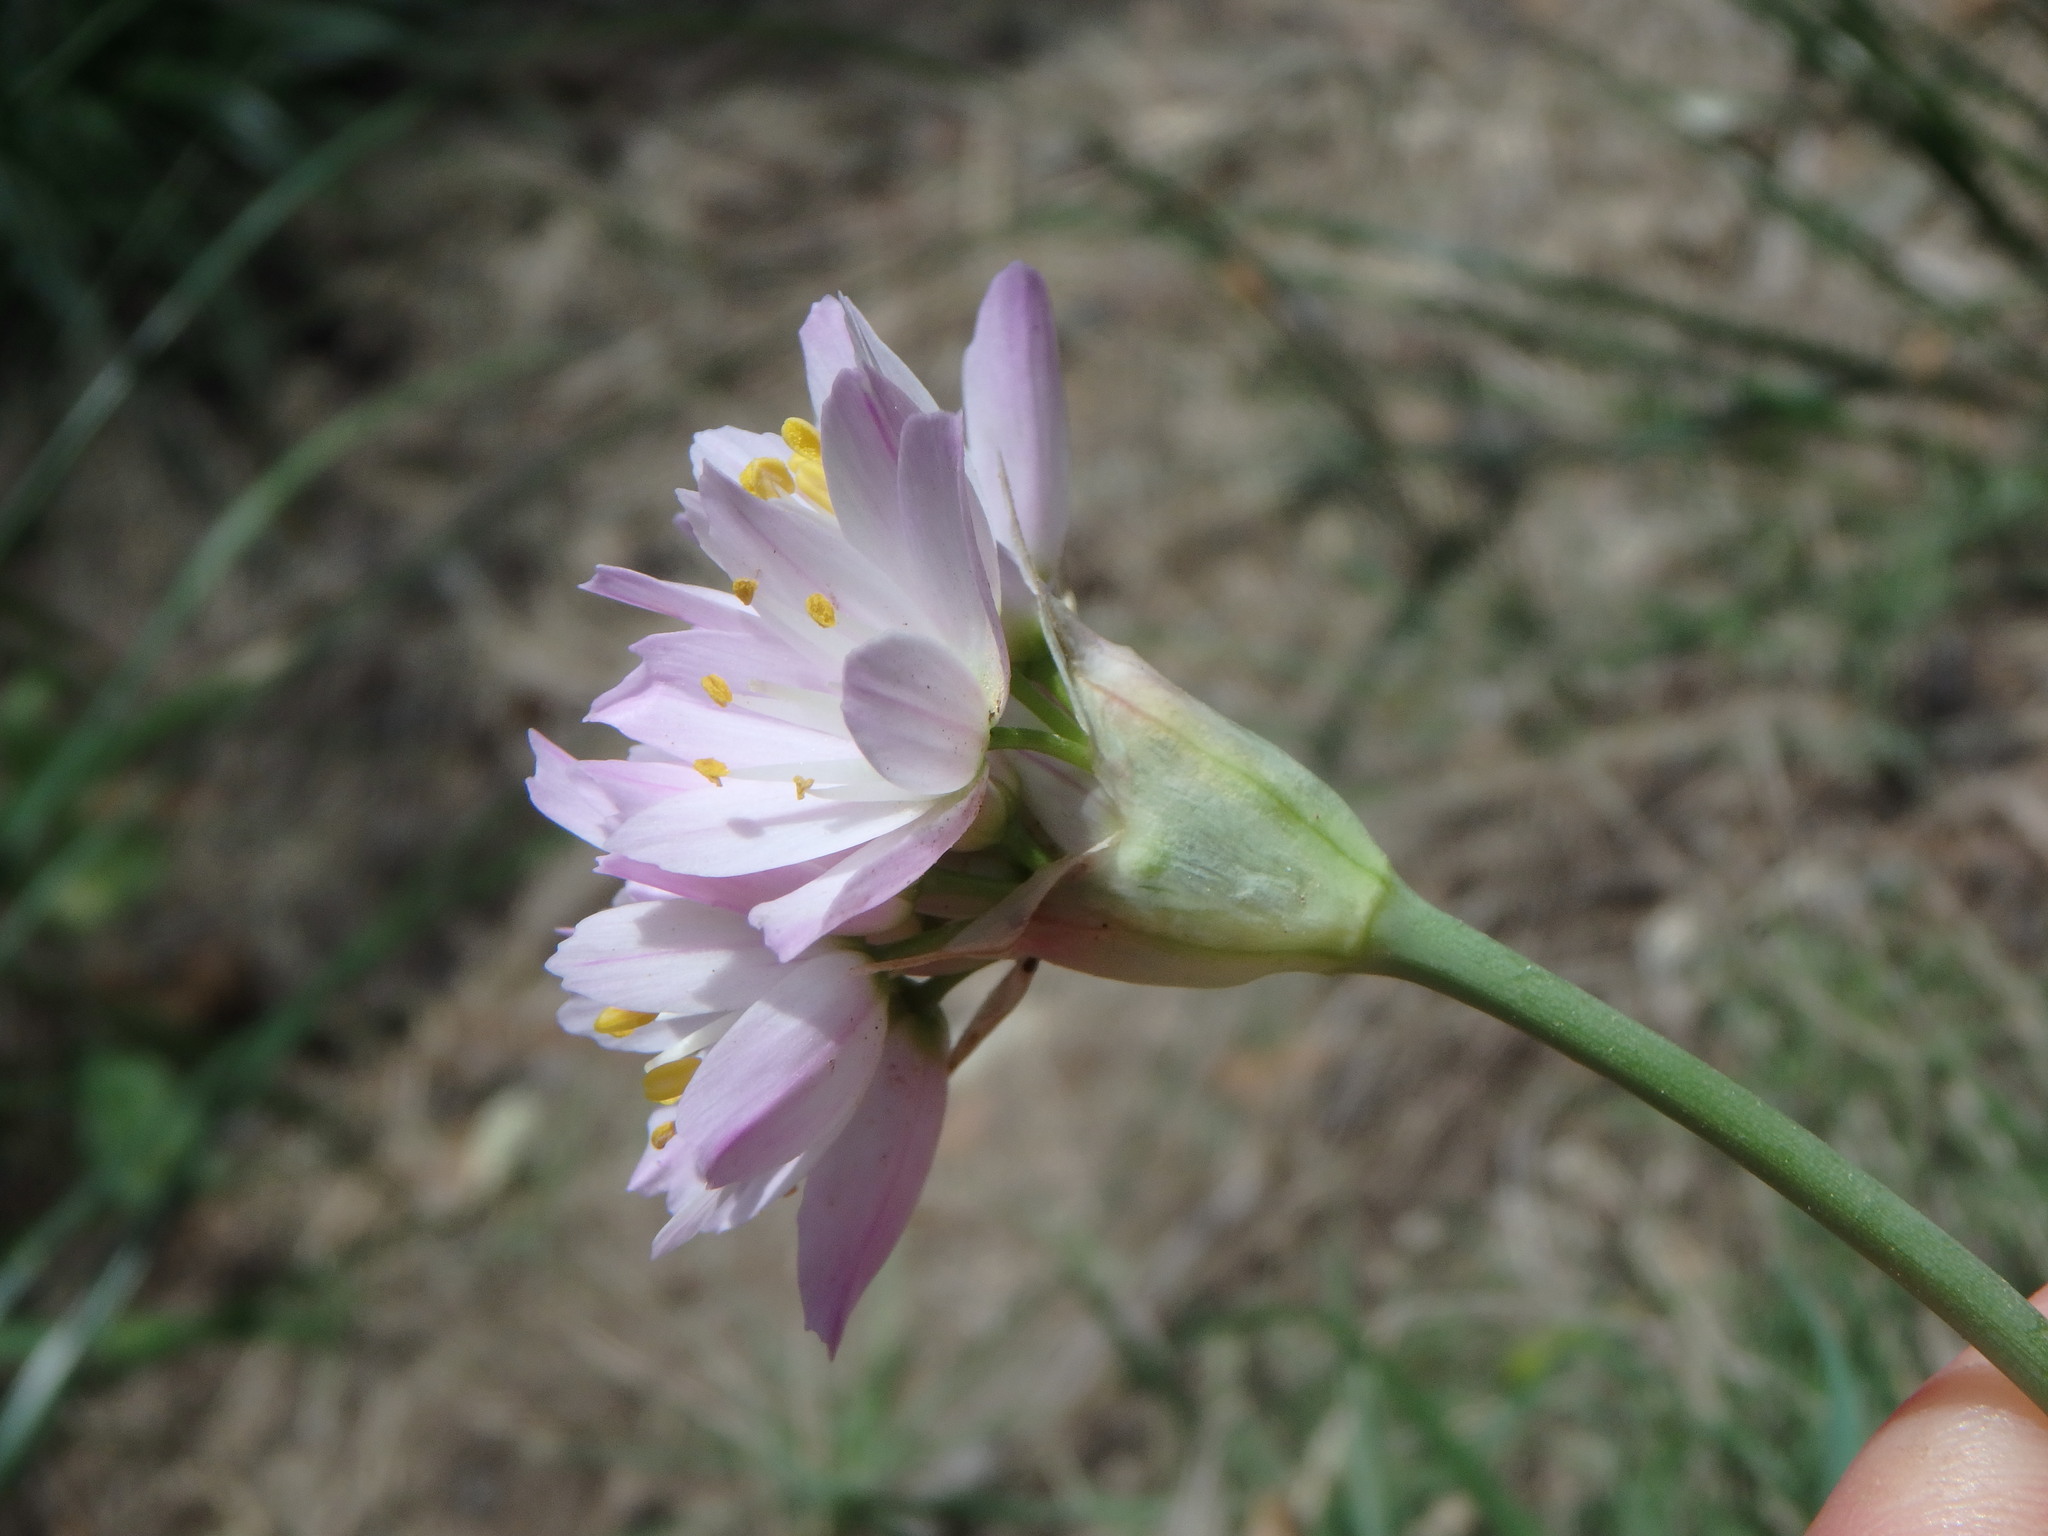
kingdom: Plantae
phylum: Tracheophyta
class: Liliopsida
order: Asparagales
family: Amaryllidaceae
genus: Allium
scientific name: Allium roseum
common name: Rosy garlic
